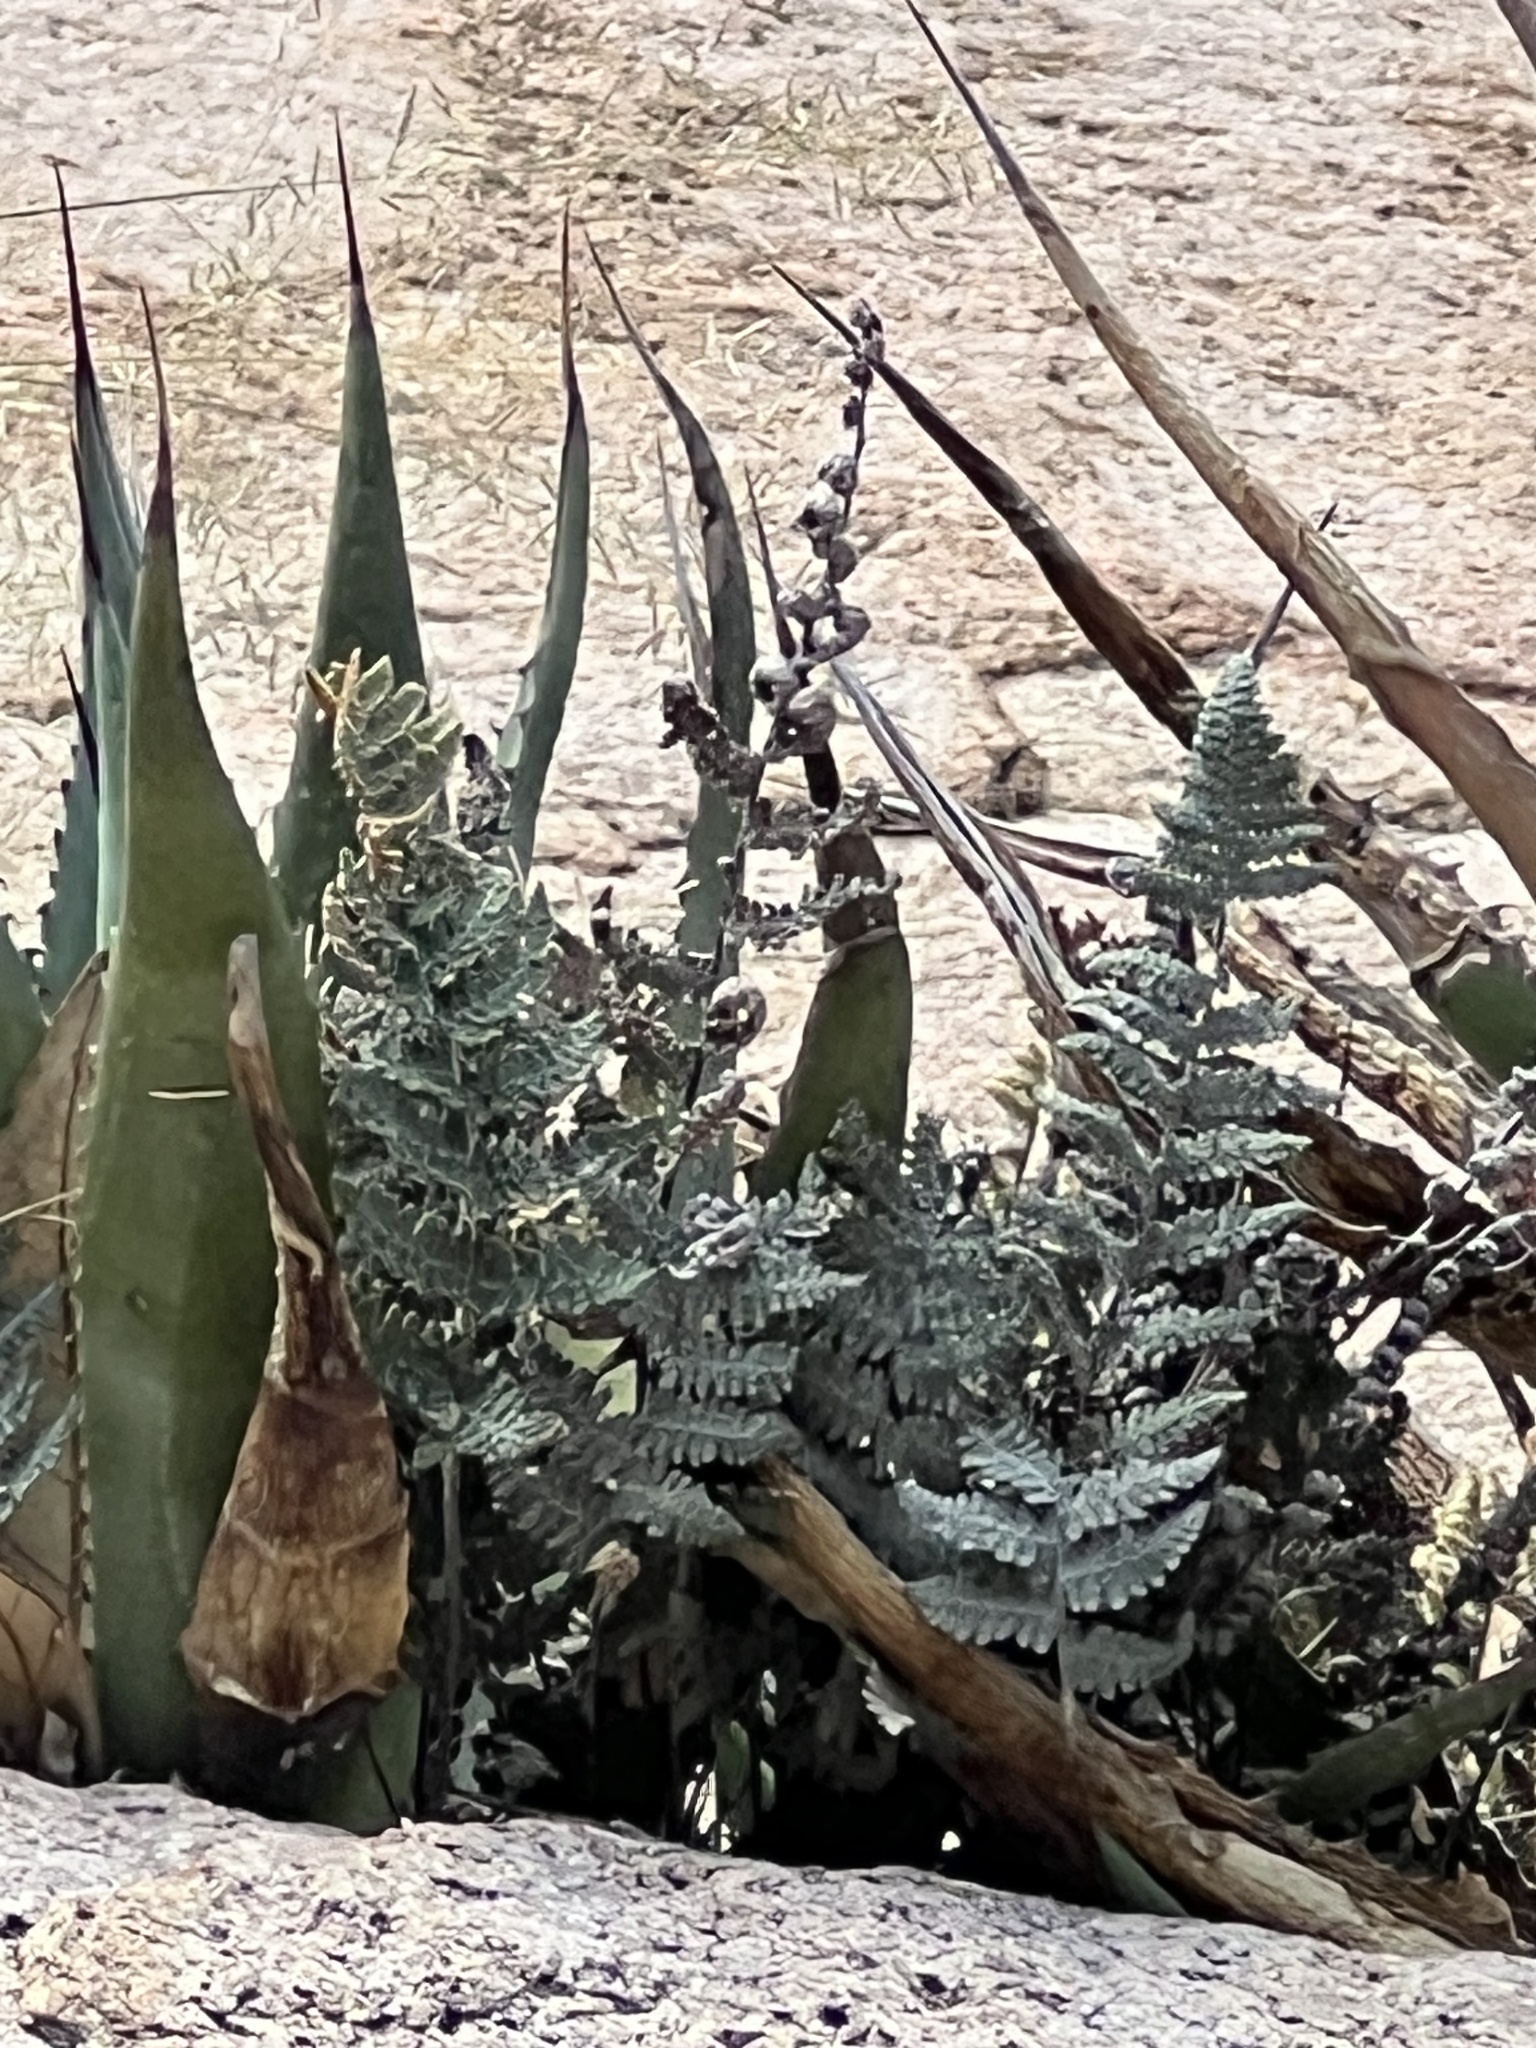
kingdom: Plantae
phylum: Tracheophyta
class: Polypodiopsida
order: Polypodiales
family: Pteridaceae
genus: Myriopteris
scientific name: Myriopteris lindheimeri
